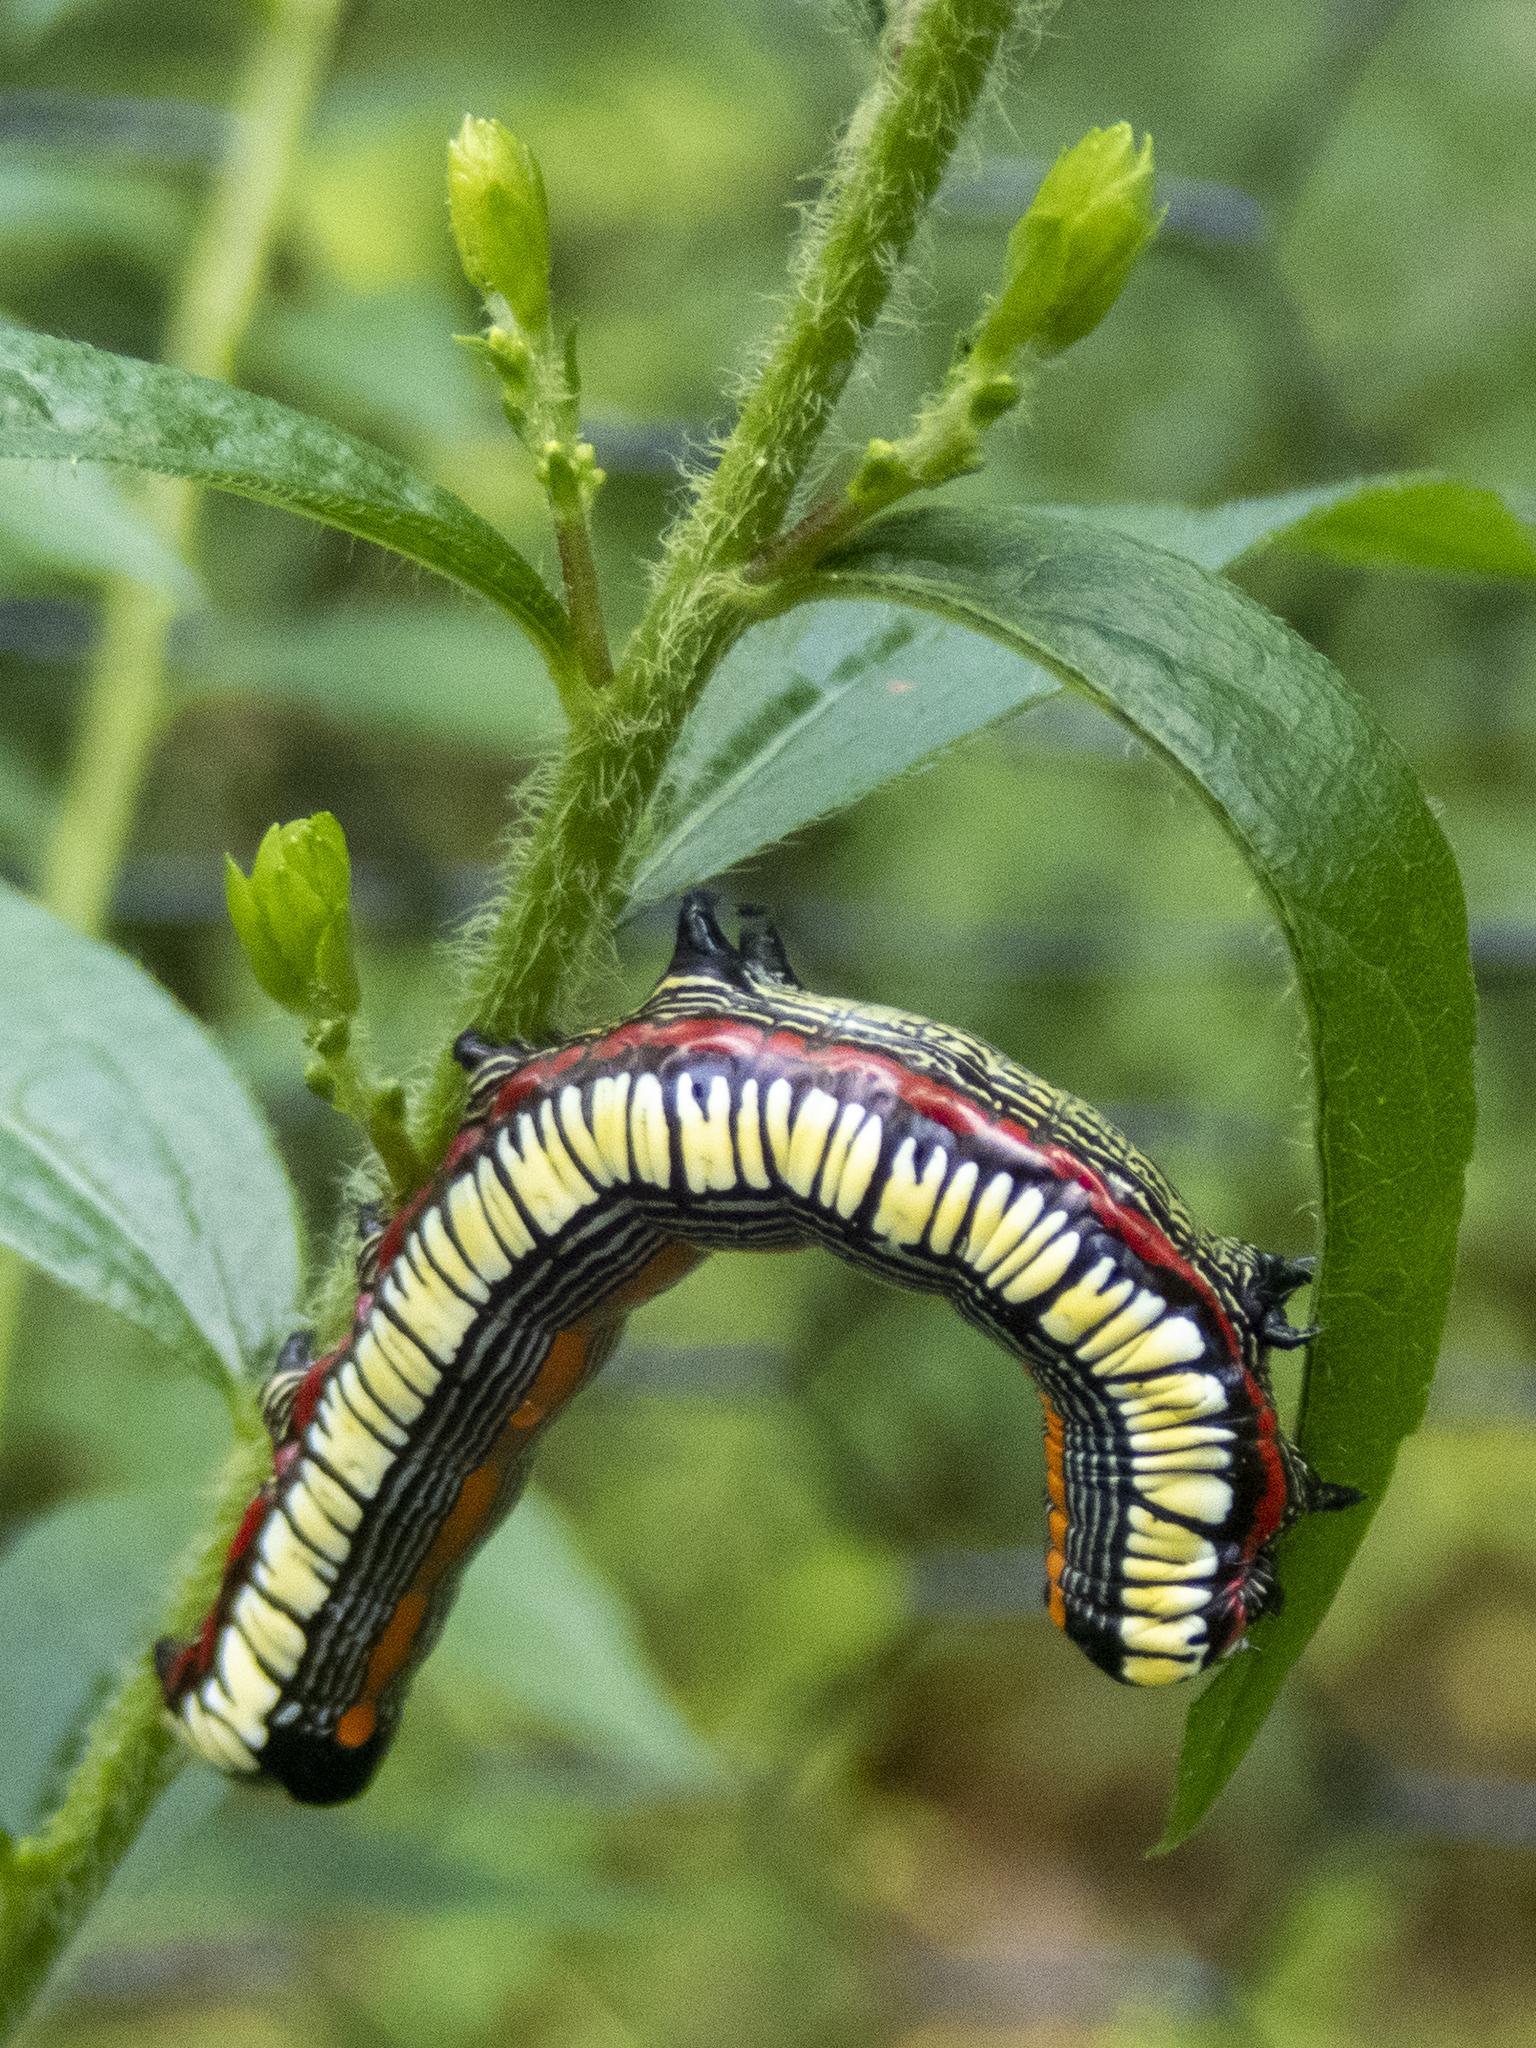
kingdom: Animalia
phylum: Arthropoda
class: Insecta
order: Lepidoptera
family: Noctuidae
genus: Cucullia
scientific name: Cucullia convexipennis
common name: Brown-hooded owlet
